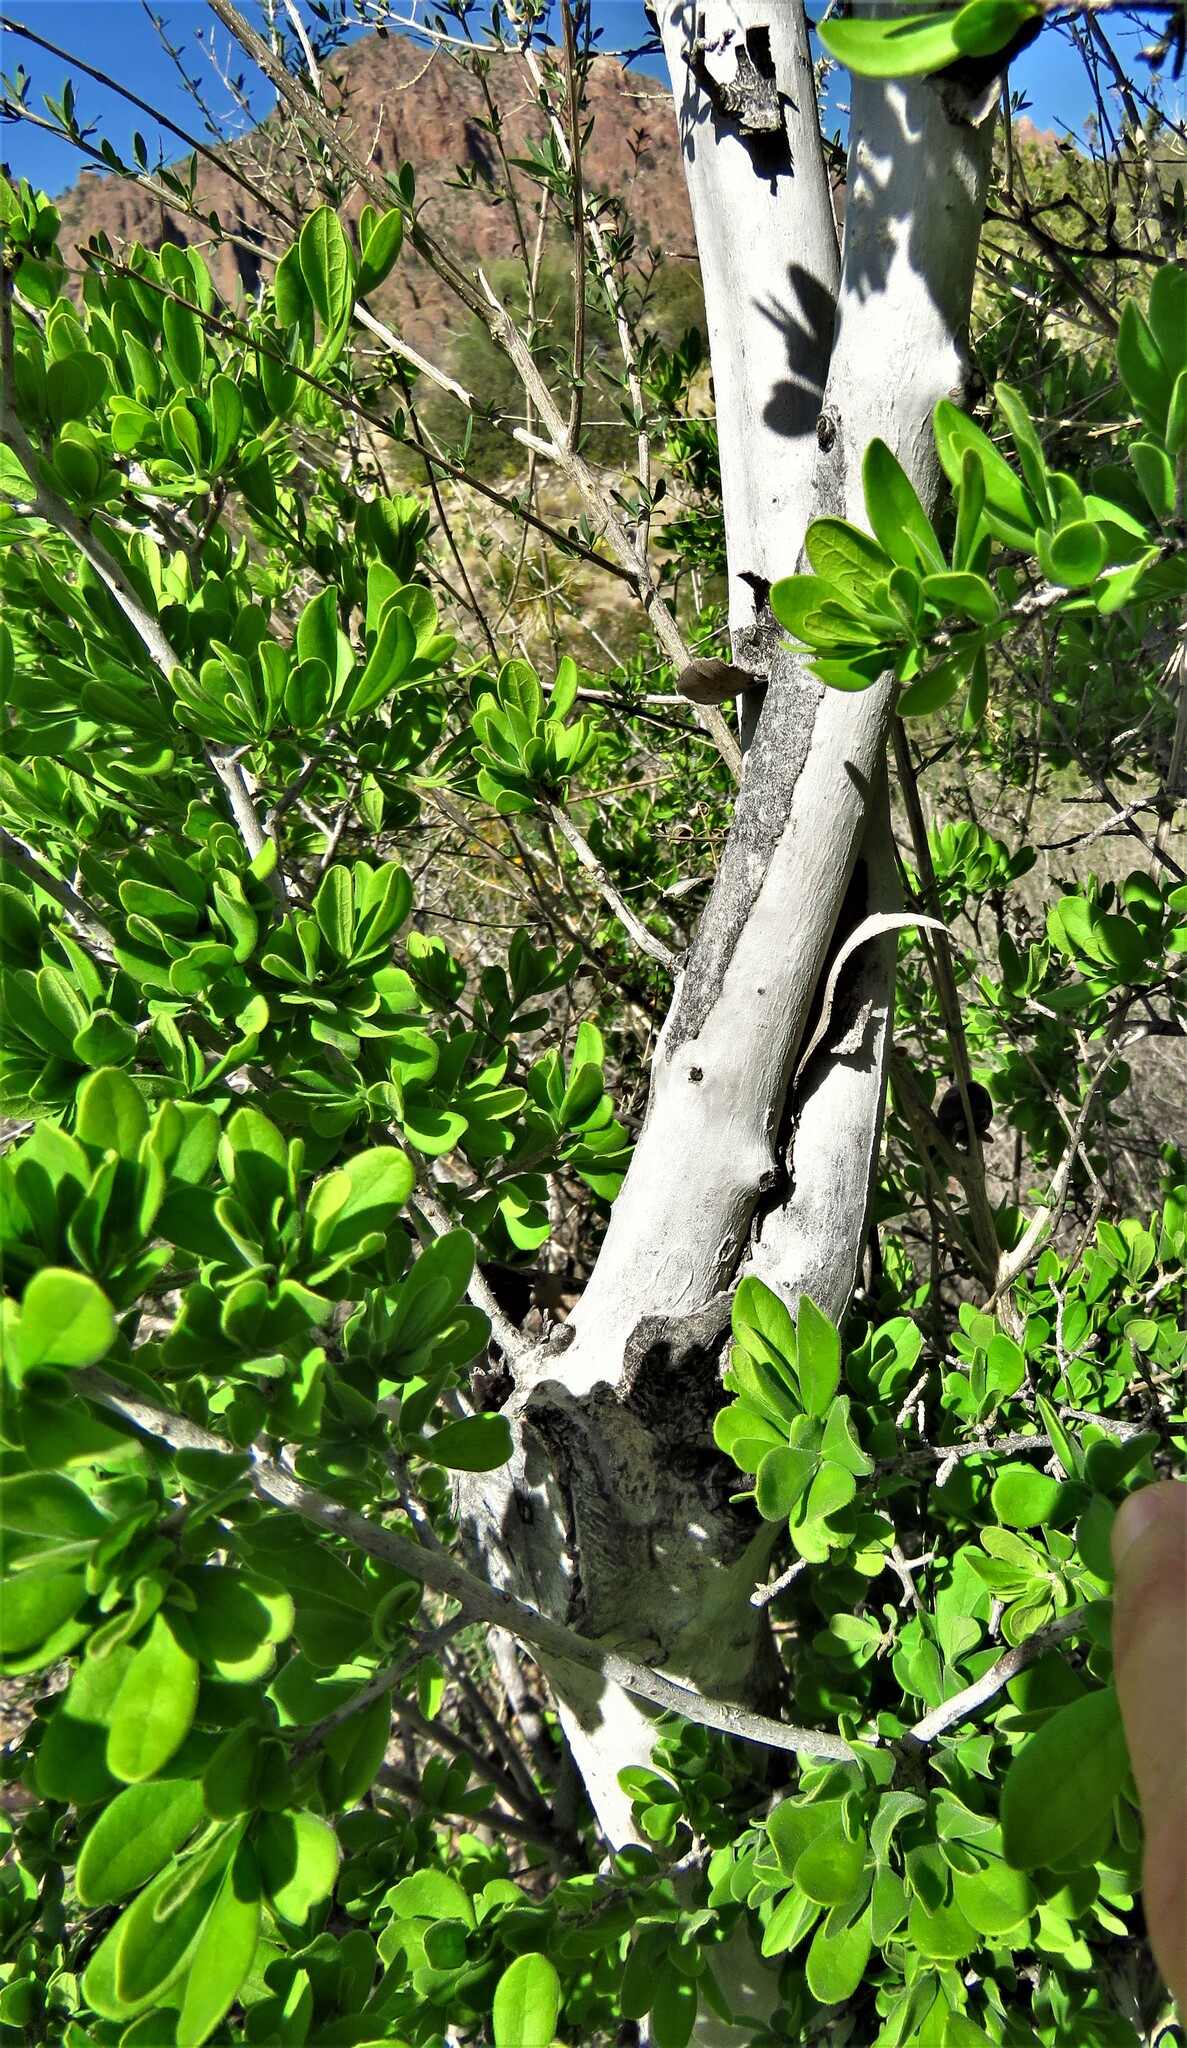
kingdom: Plantae
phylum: Tracheophyta
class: Magnoliopsida
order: Ericales
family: Ebenaceae
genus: Diospyros
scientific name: Diospyros texana
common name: Texas persimmon
